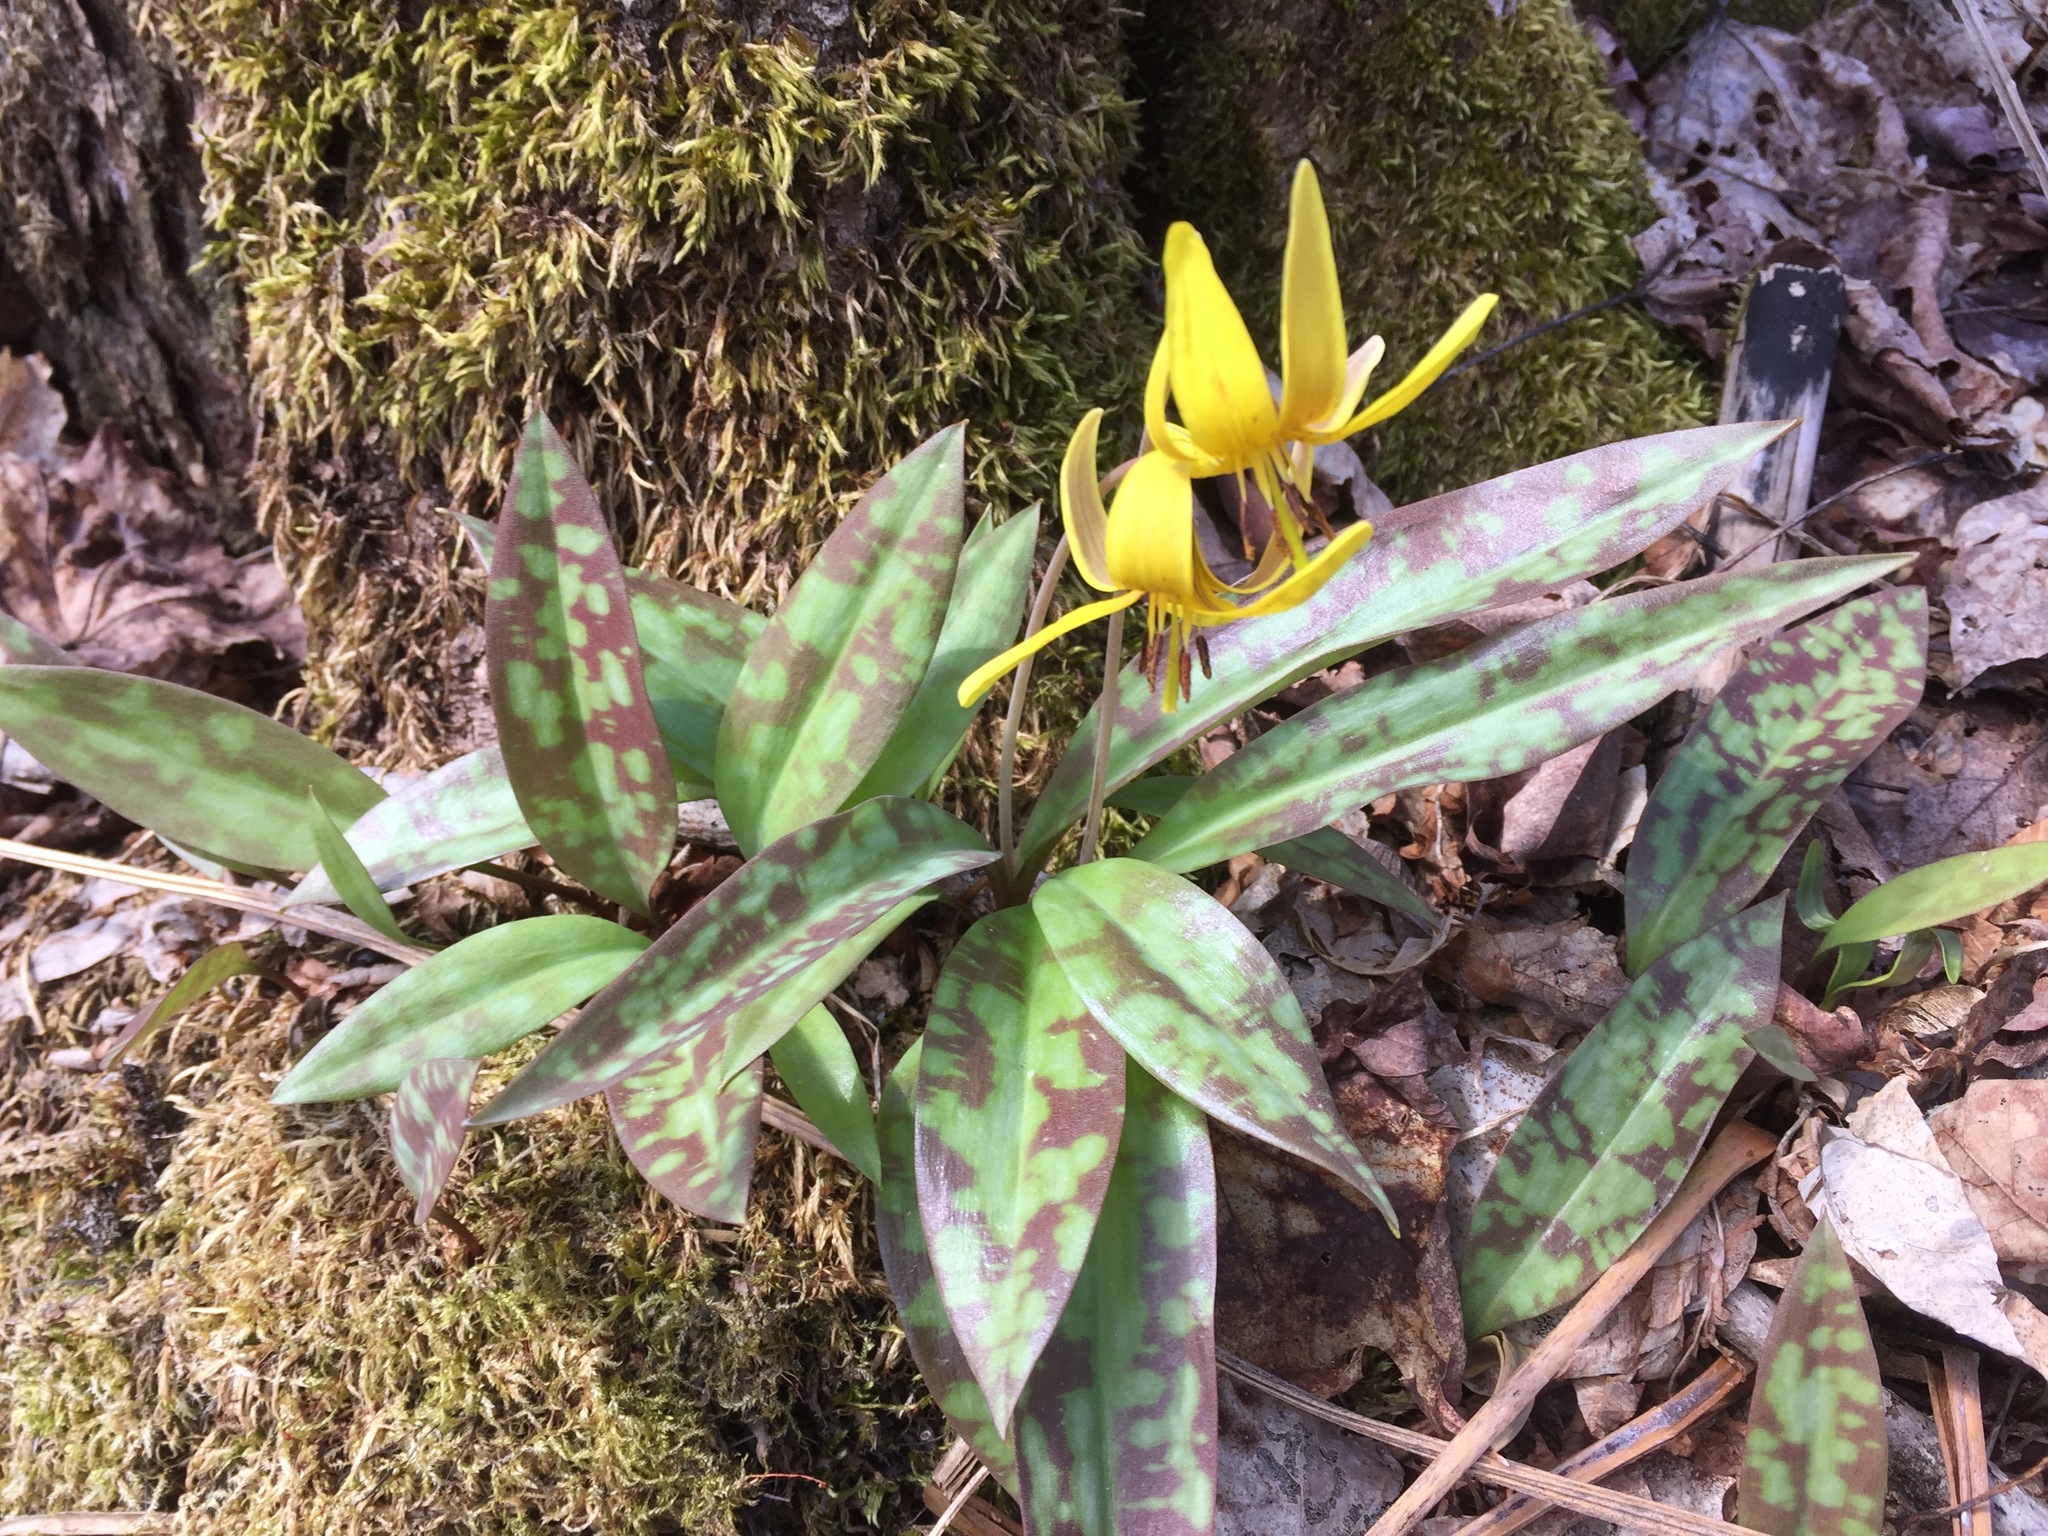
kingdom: Plantae
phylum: Tracheophyta
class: Liliopsida
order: Liliales
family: Liliaceae
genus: Erythronium
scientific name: Erythronium americanum
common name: Yellow adder's-tongue
